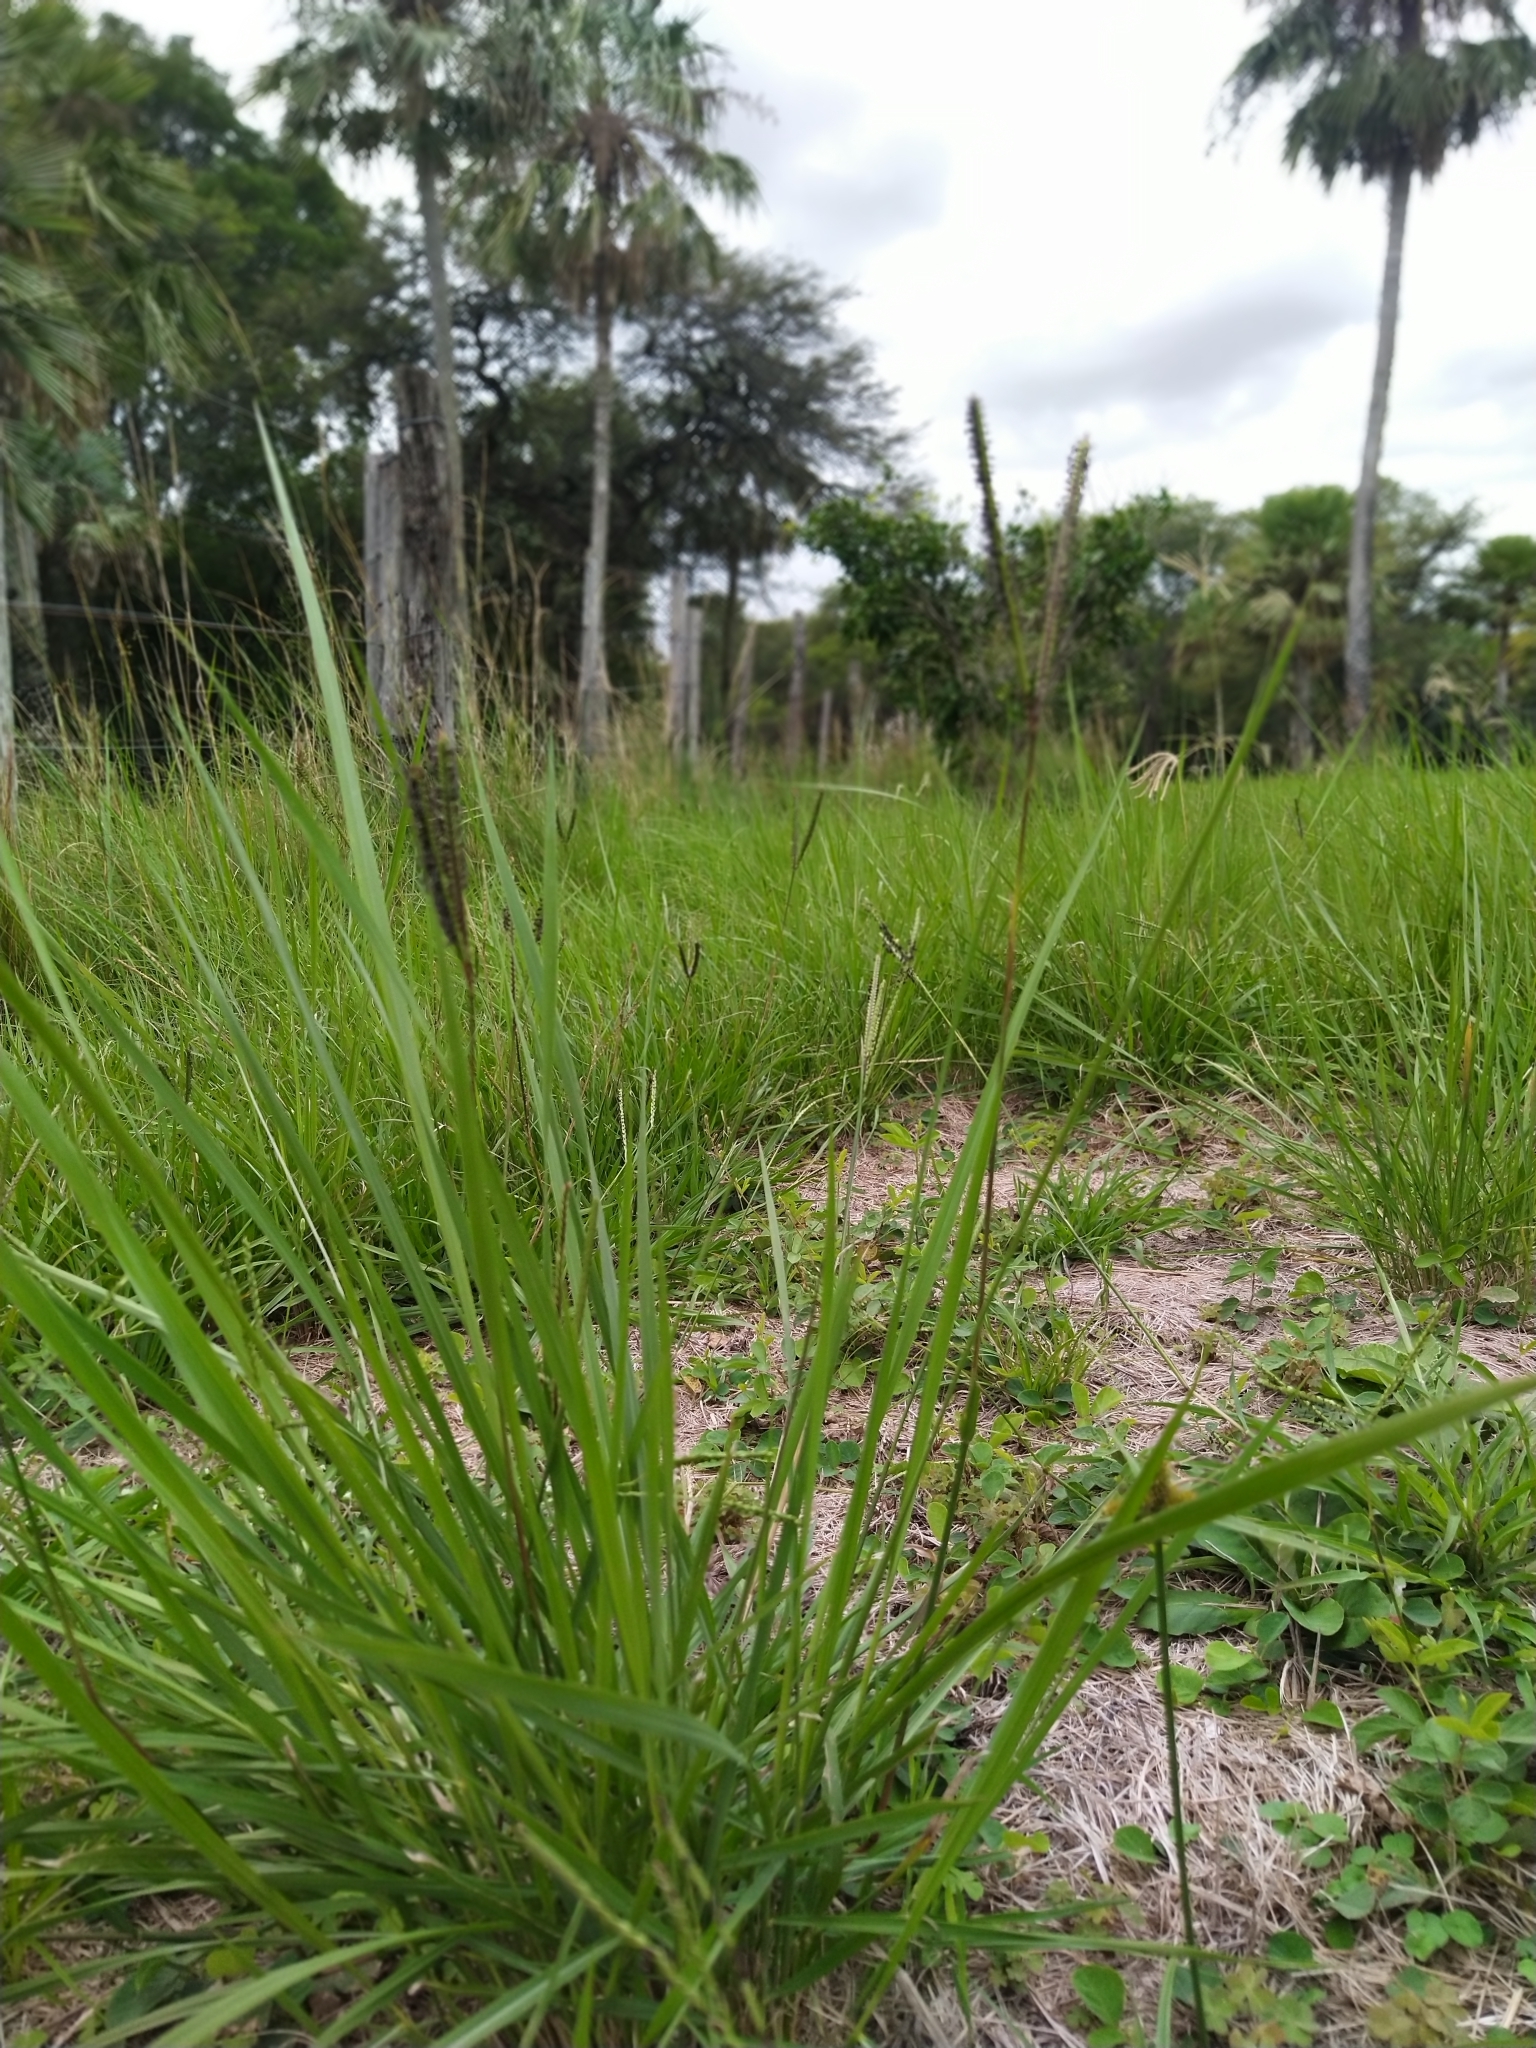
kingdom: Plantae
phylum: Tracheophyta
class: Liliopsida
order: Poales
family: Poaceae
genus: Paspalum
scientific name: Paspalum notatum
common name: Bahiagrass
